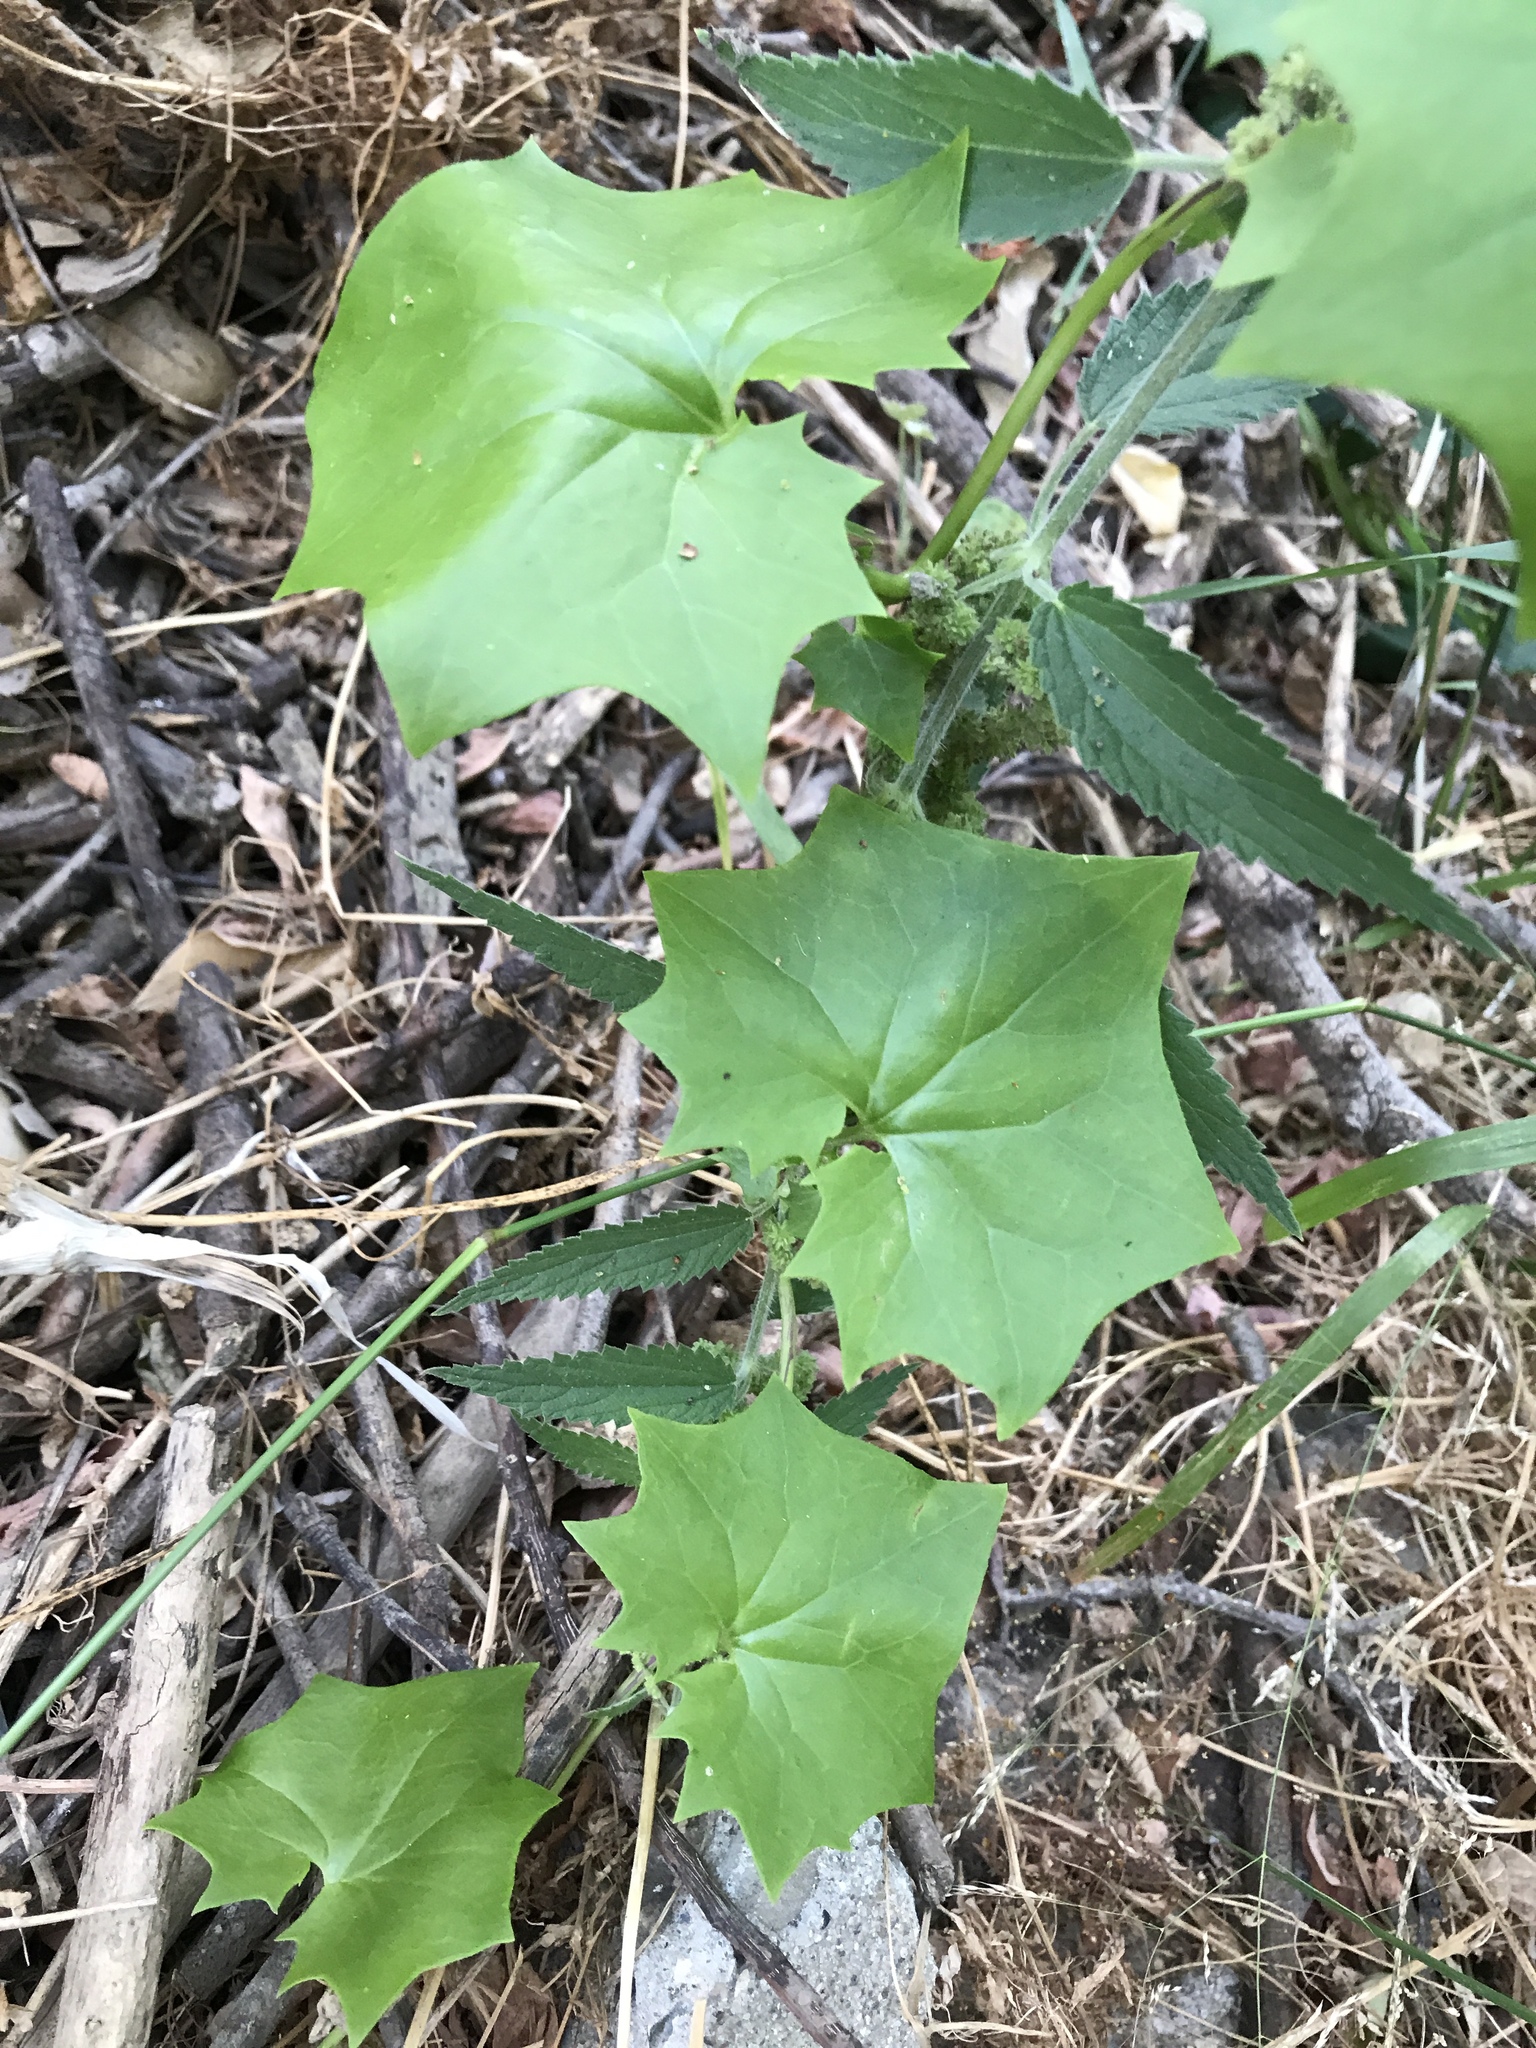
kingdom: Plantae
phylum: Tracheophyta
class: Magnoliopsida
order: Asterales
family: Asteraceae
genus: Delairea
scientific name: Delairea odorata
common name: Cape-ivy
